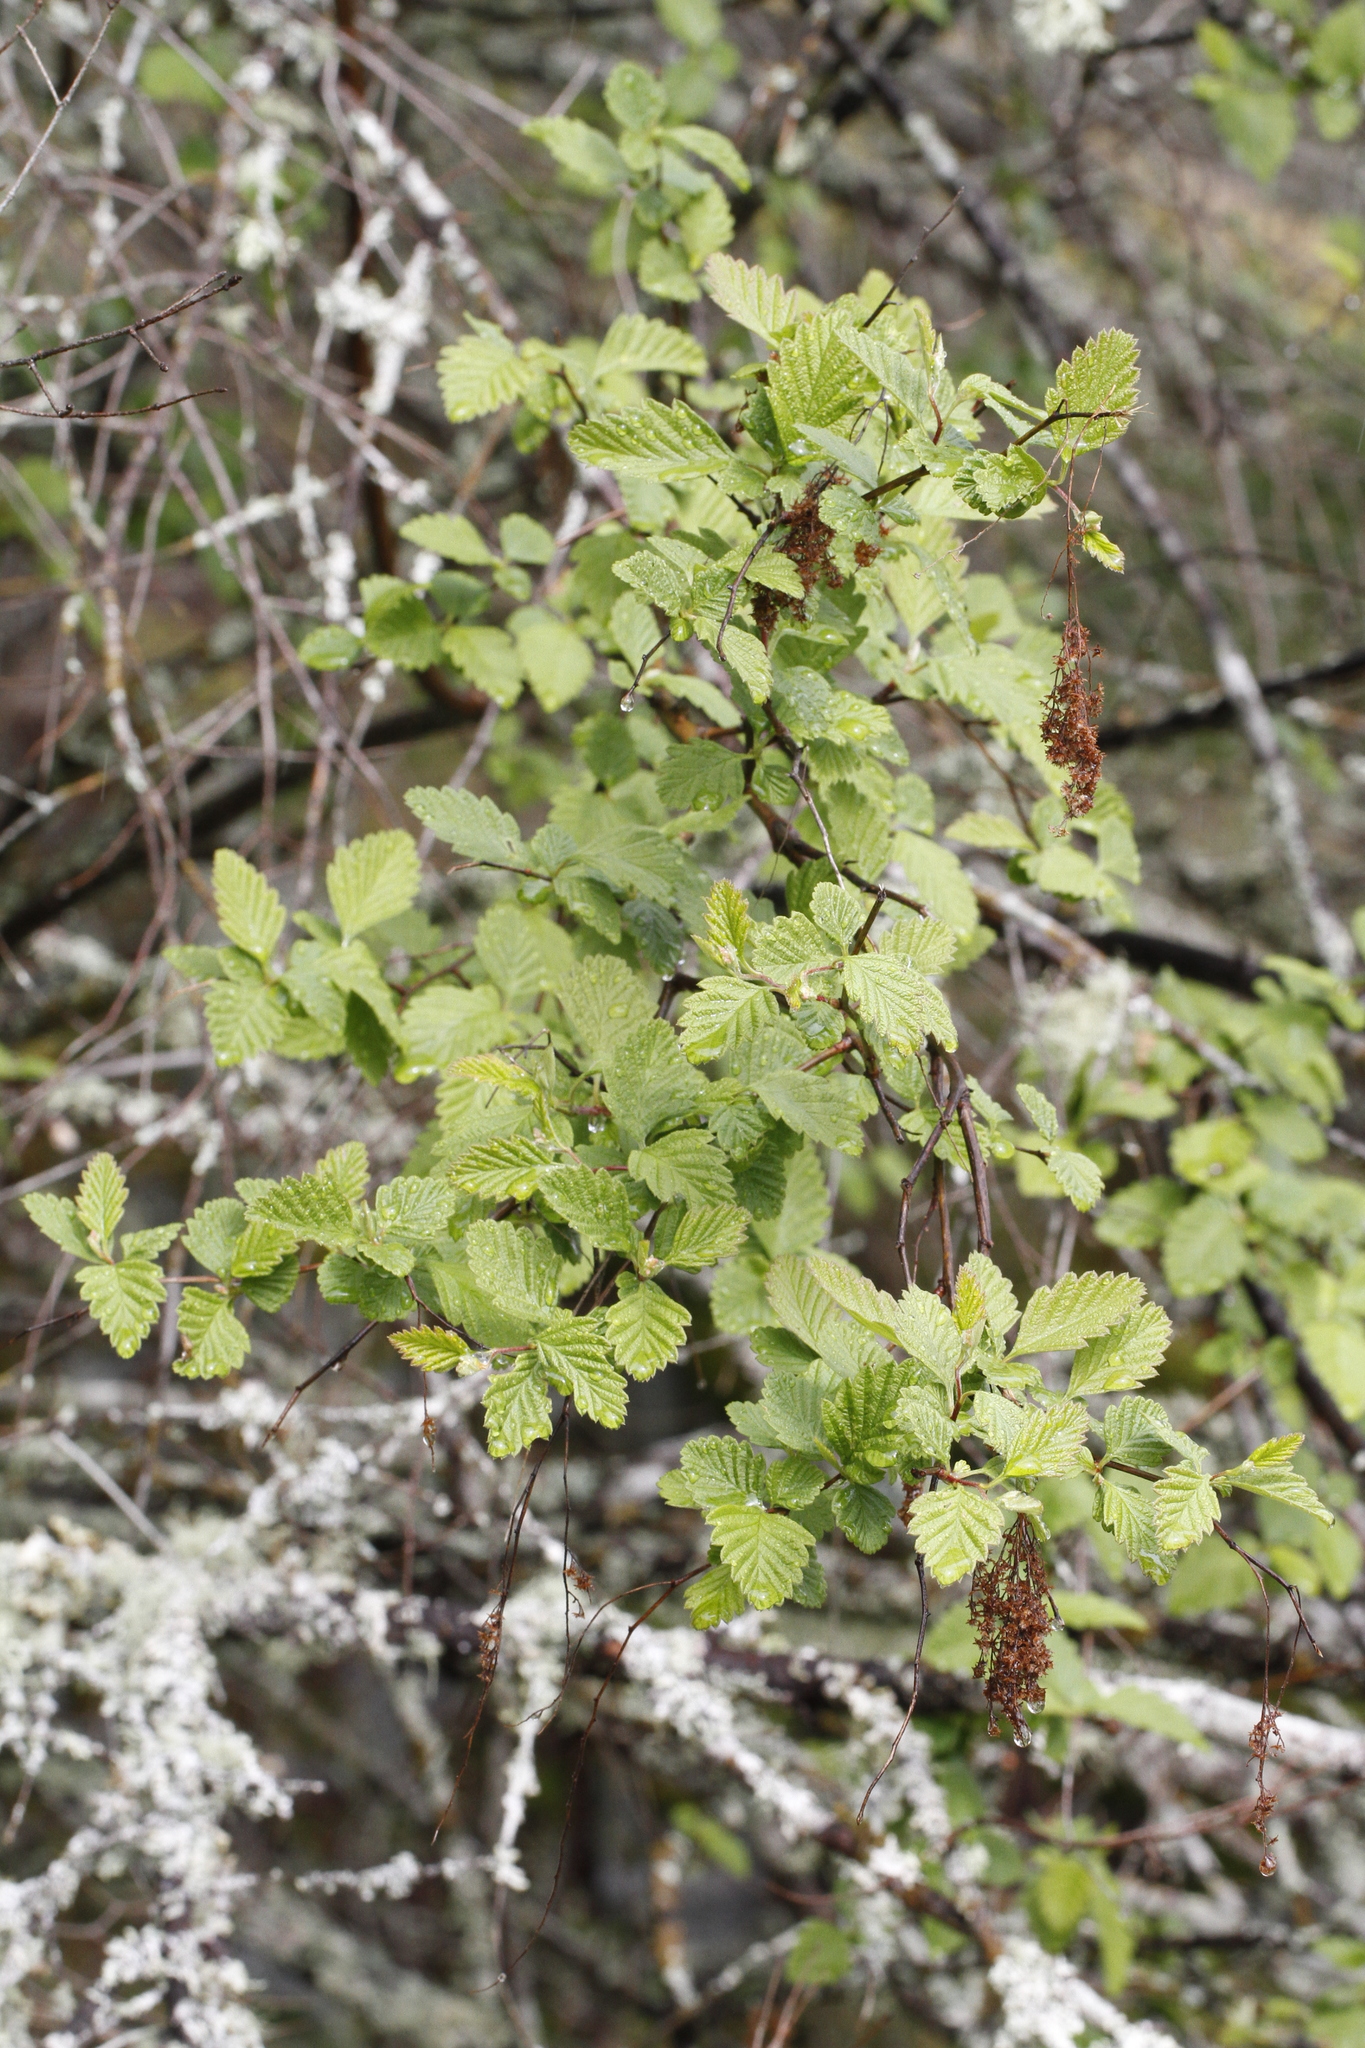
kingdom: Plantae
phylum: Tracheophyta
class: Magnoliopsida
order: Rosales
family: Rosaceae
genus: Holodiscus
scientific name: Holodiscus discolor
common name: Oceanspray
